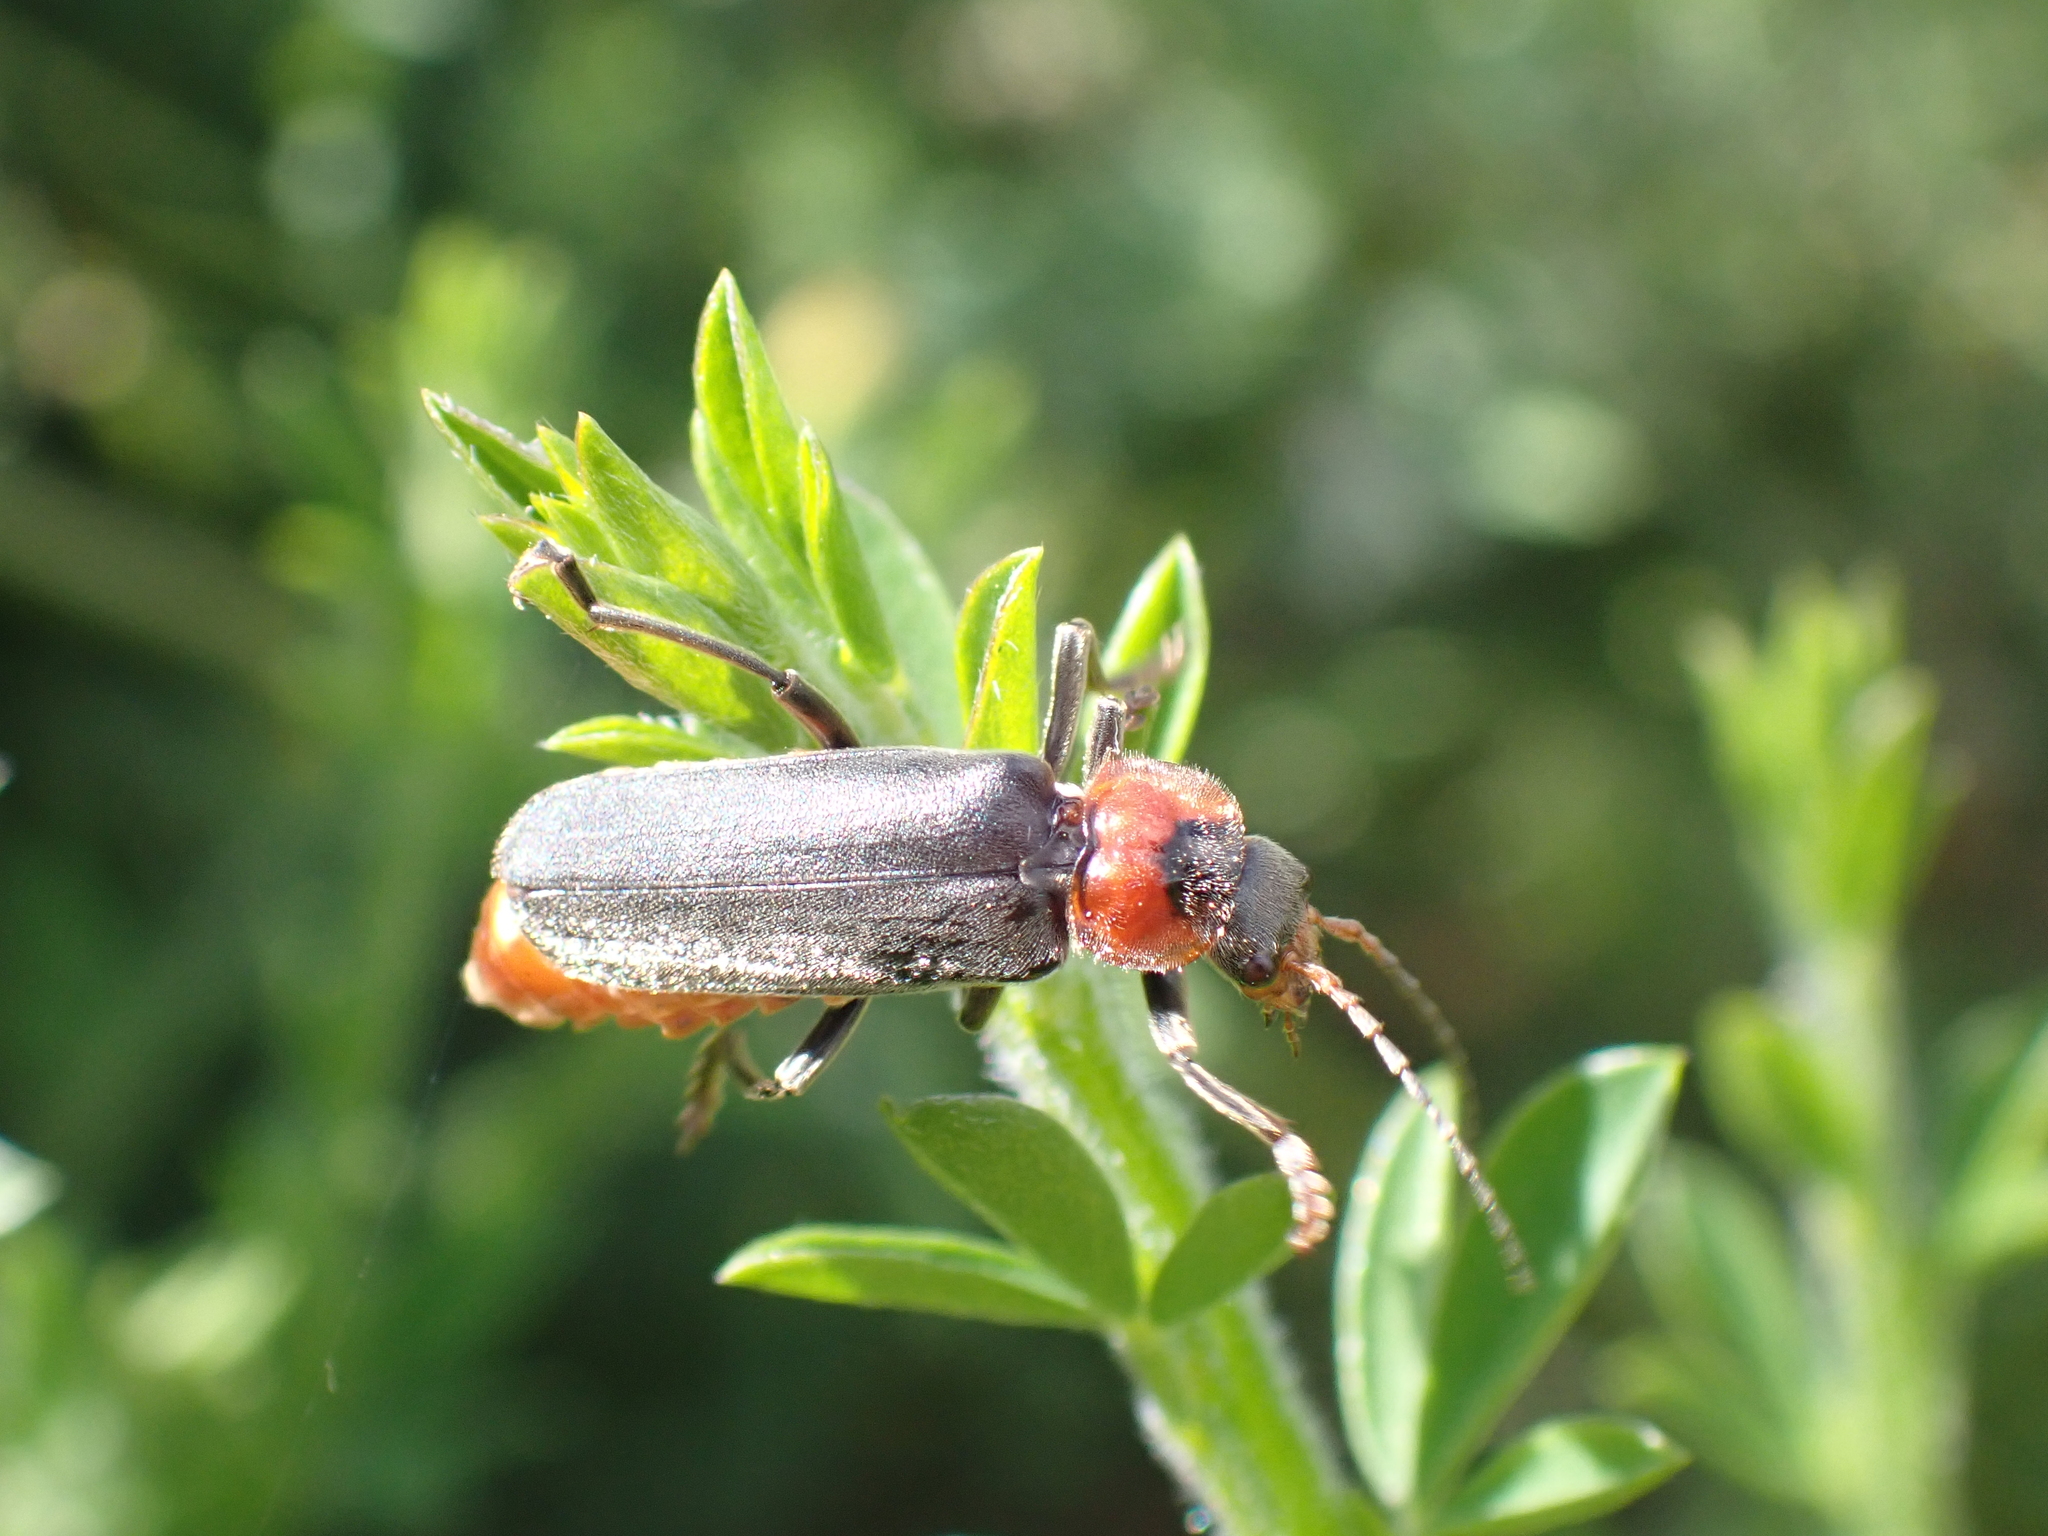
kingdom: Animalia
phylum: Arthropoda
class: Insecta
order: Coleoptera
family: Cantharidae
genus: Cantharis
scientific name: Cantharis fusca
